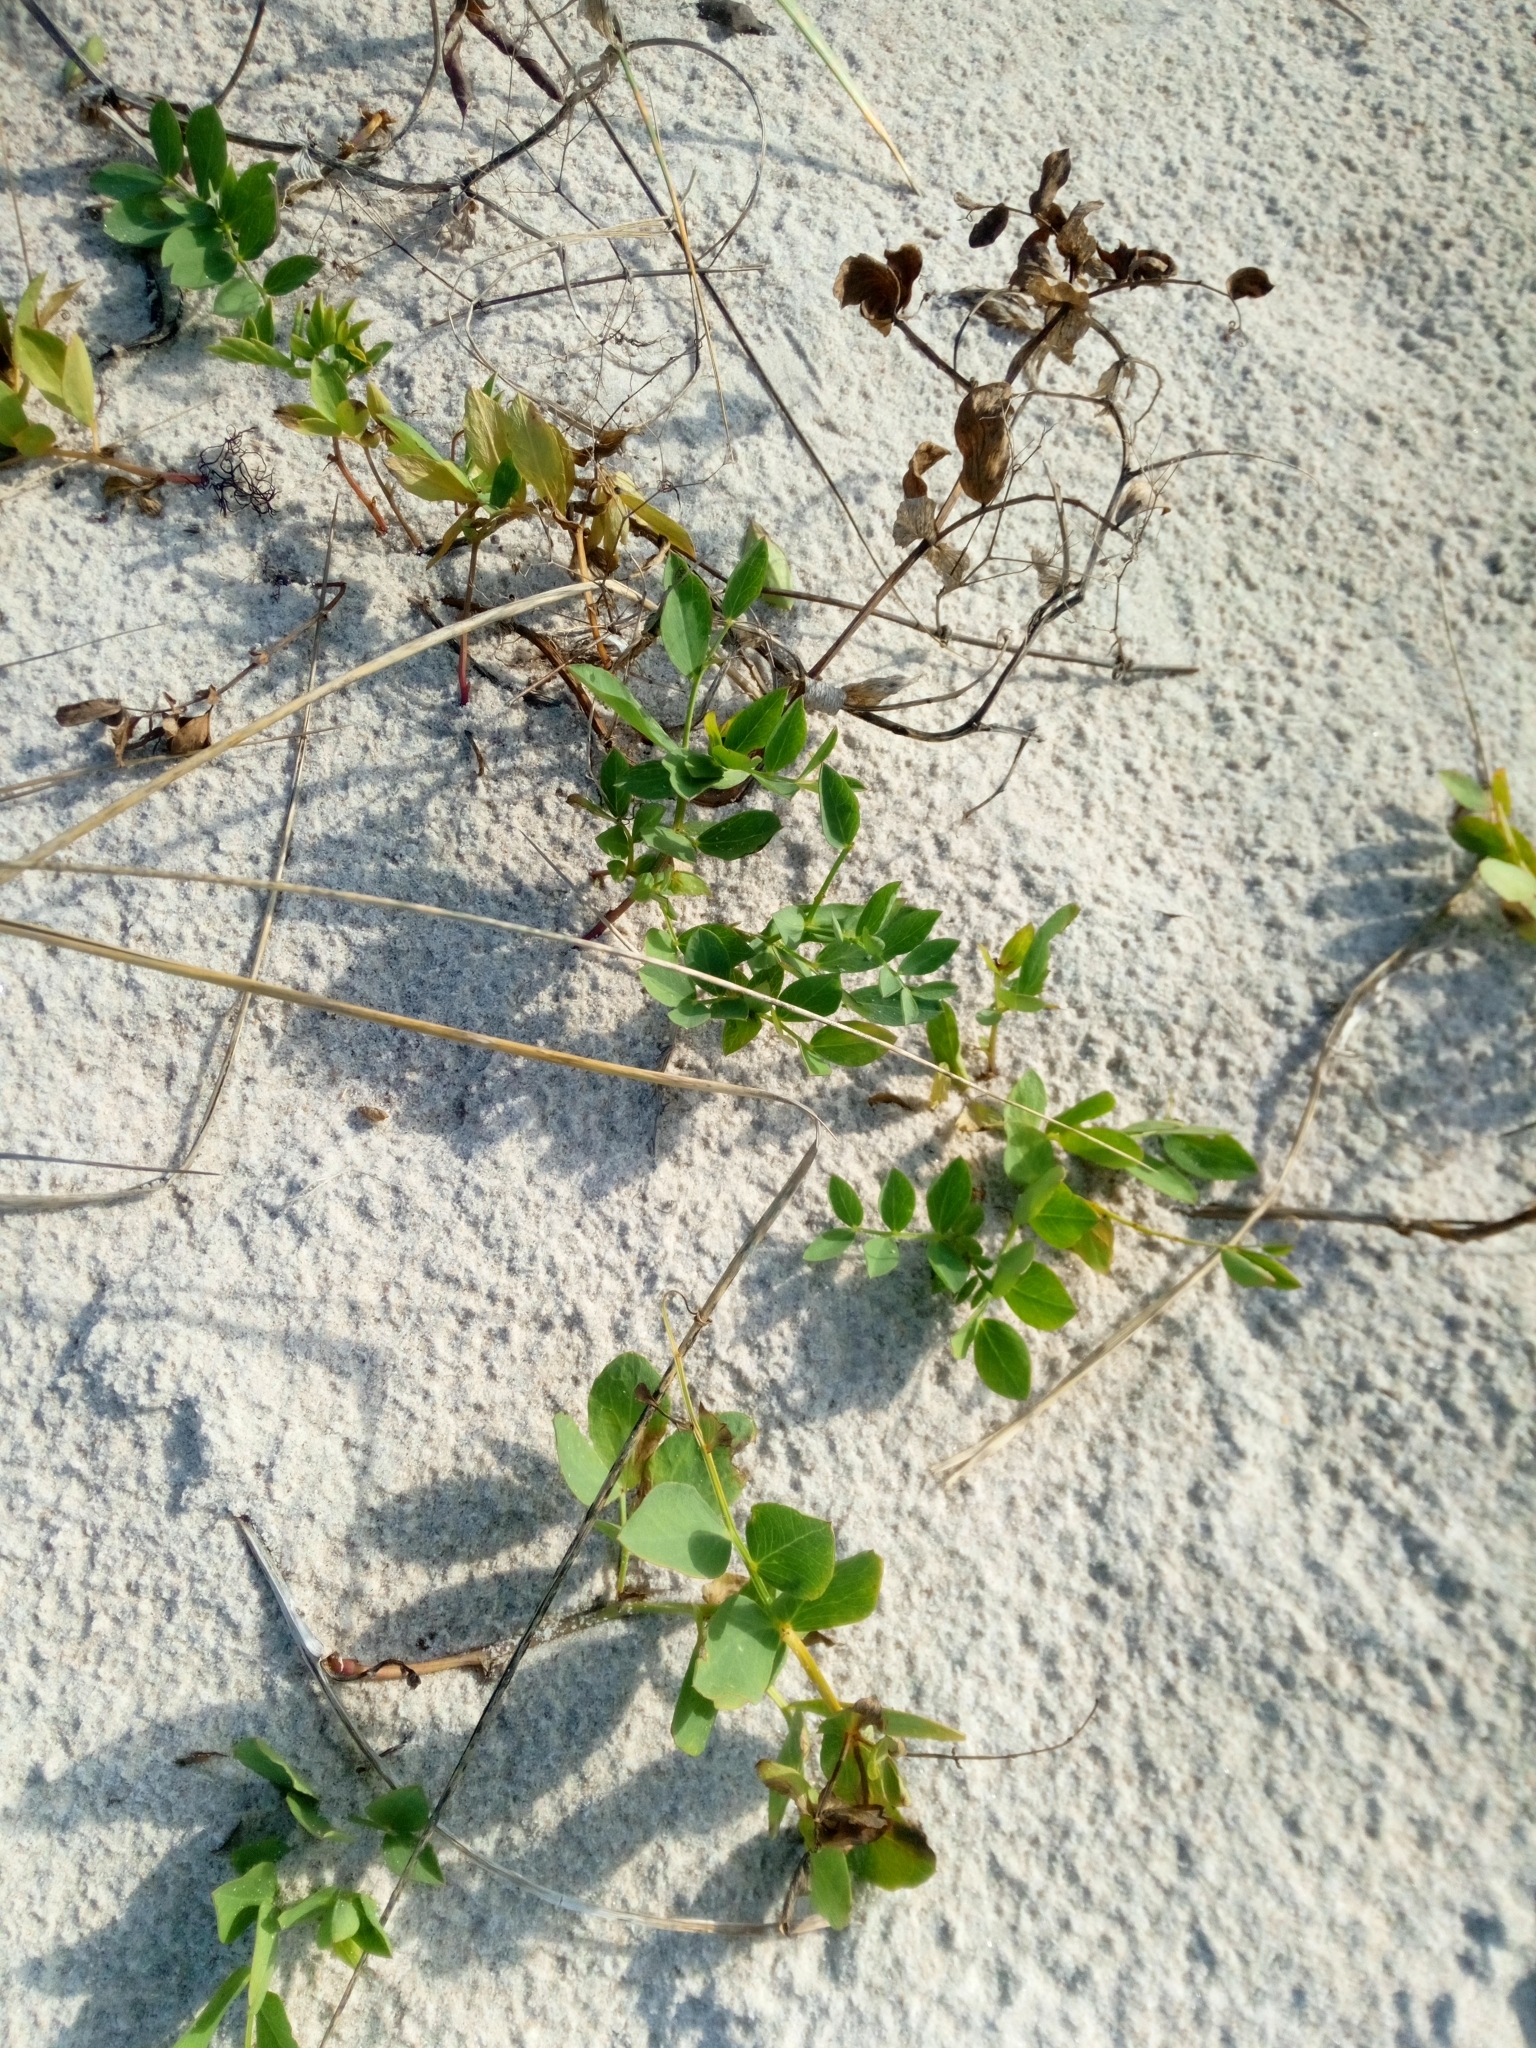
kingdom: Plantae
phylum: Tracheophyta
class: Magnoliopsida
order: Fabales
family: Fabaceae
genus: Lathyrus
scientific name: Lathyrus japonicus
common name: Sea pea
